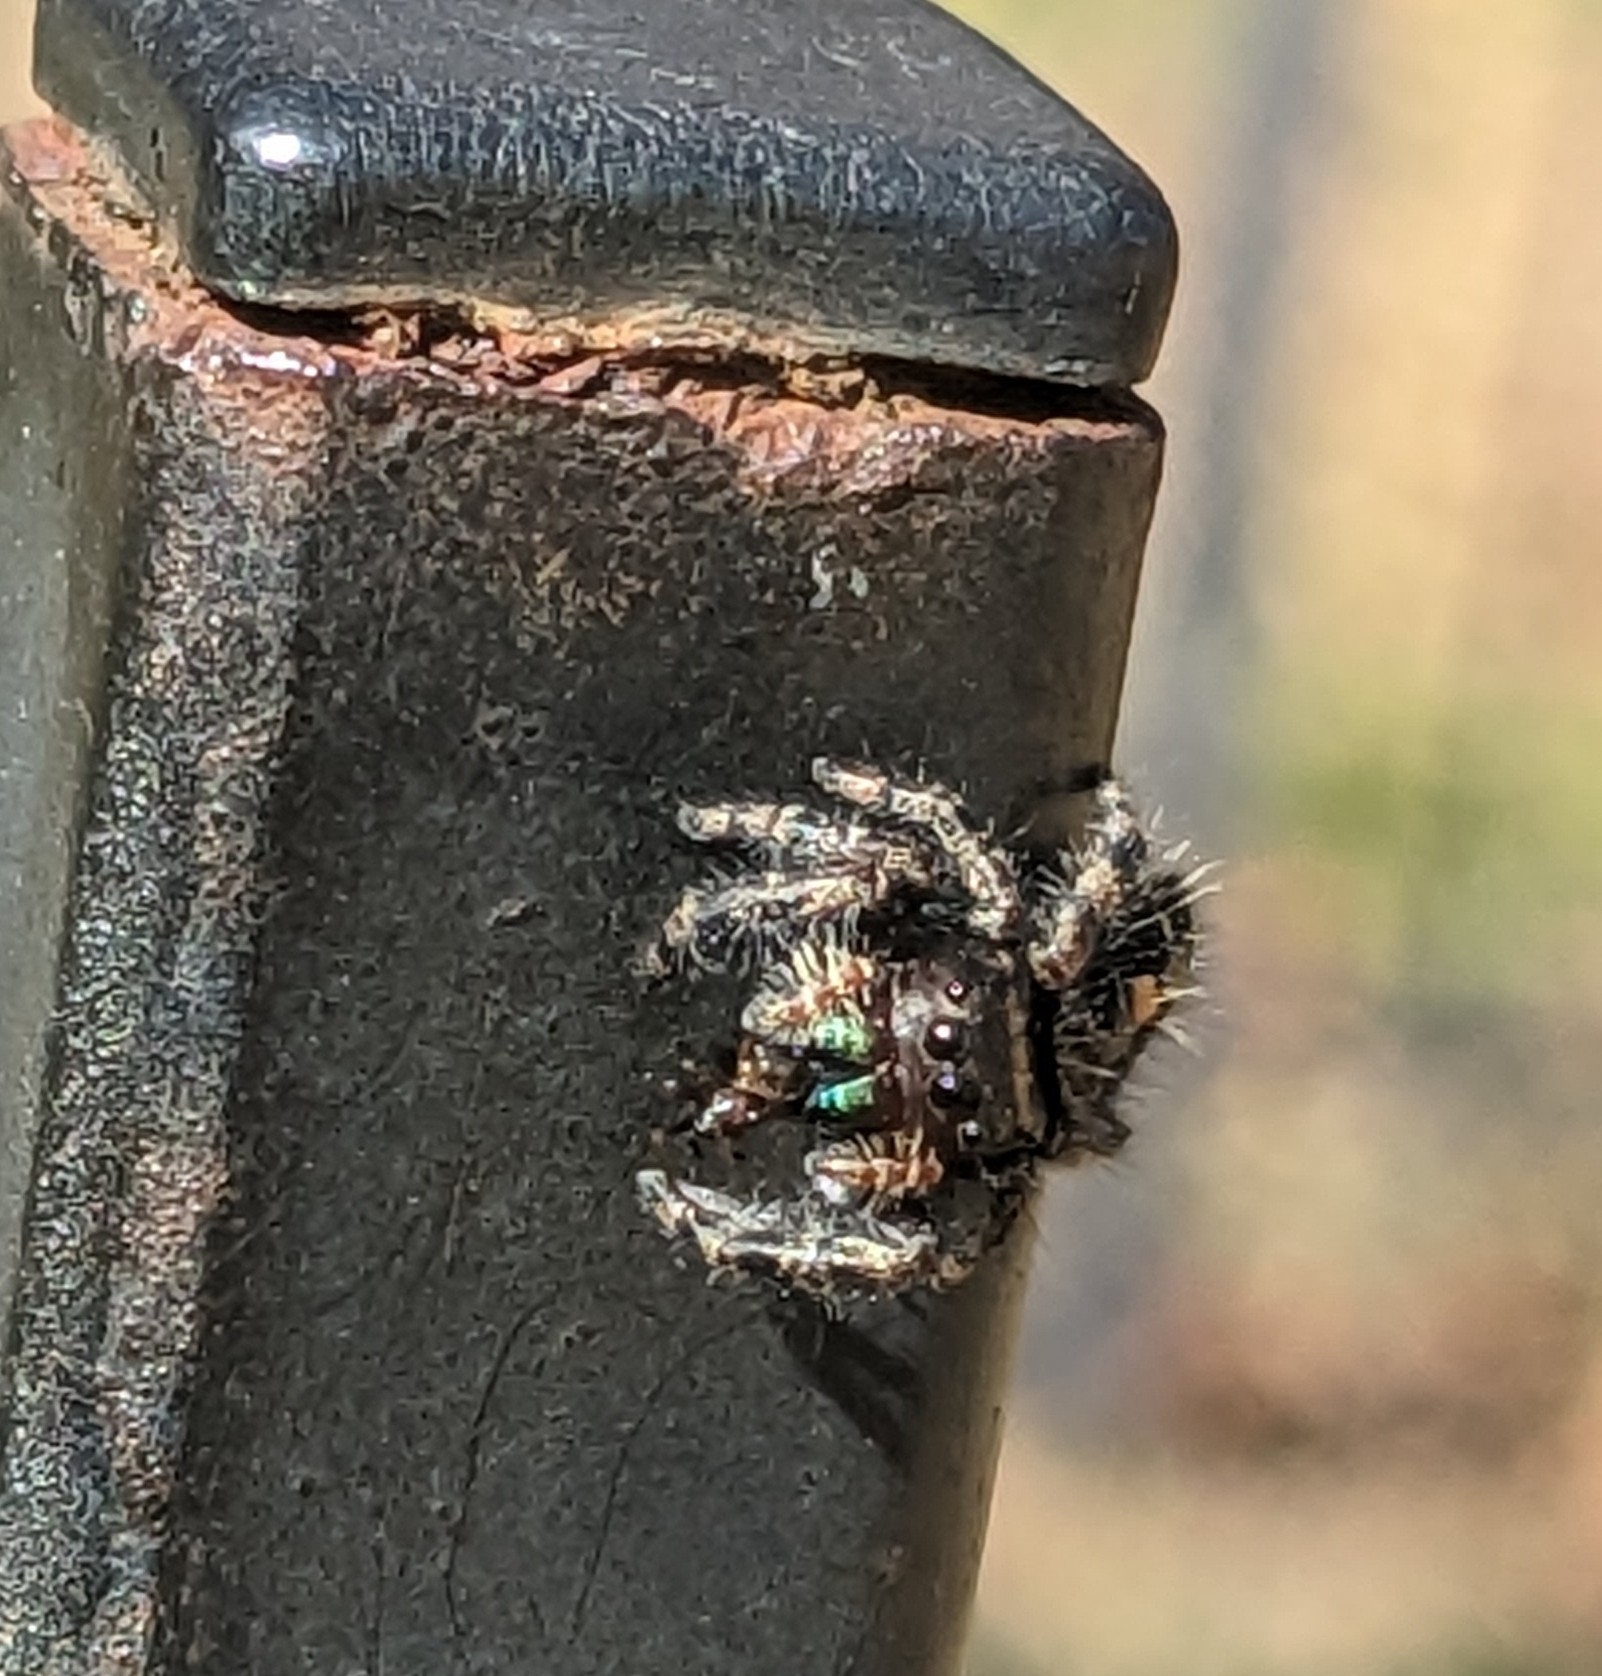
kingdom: Animalia
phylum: Arthropoda
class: Arachnida
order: Araneae
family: Salticidae
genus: Phidippus
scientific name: Phidippus audax
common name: Bold jumper
